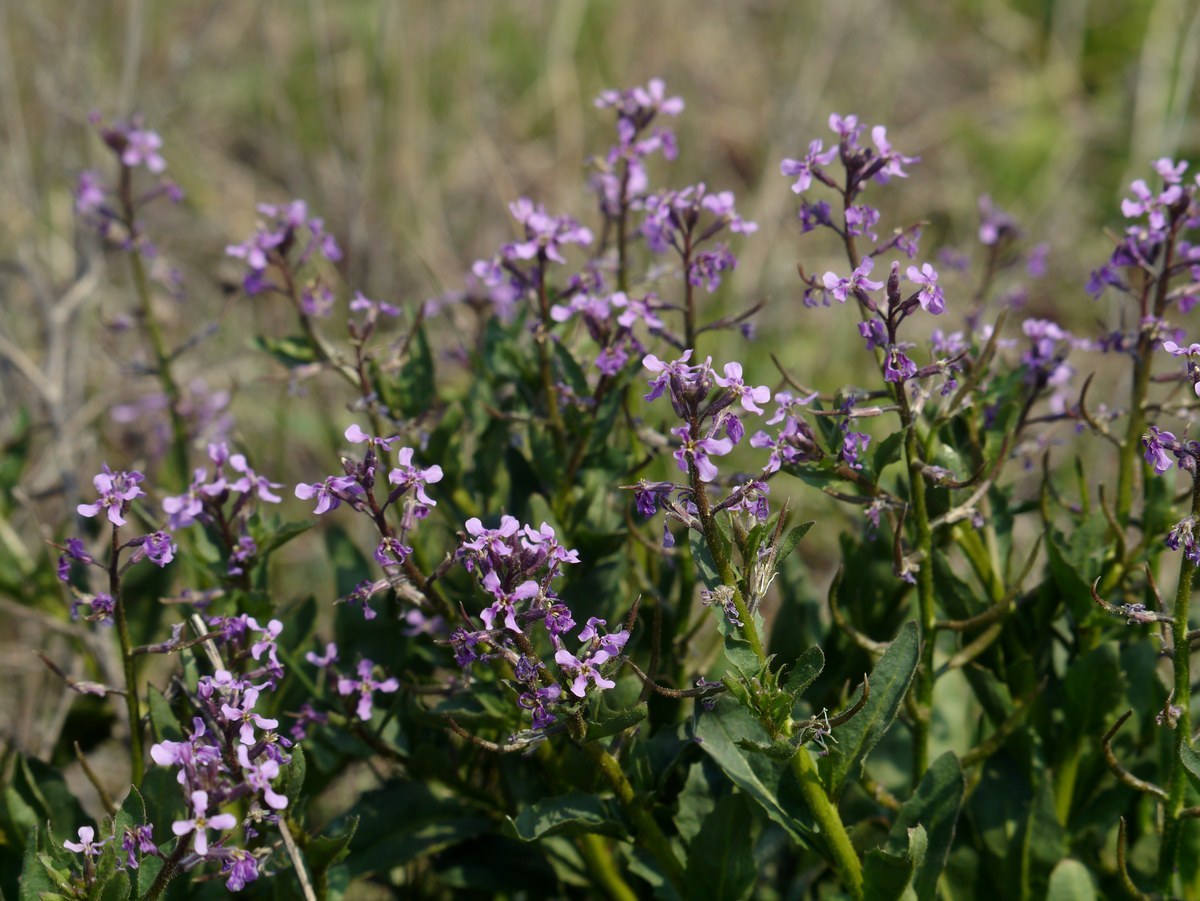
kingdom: Plantae
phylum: Tracheophyta
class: Magnoliopsida
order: Brassicales
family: Brassicaceae
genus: Chorispora
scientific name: Chorispora tenella
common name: Crossflower
